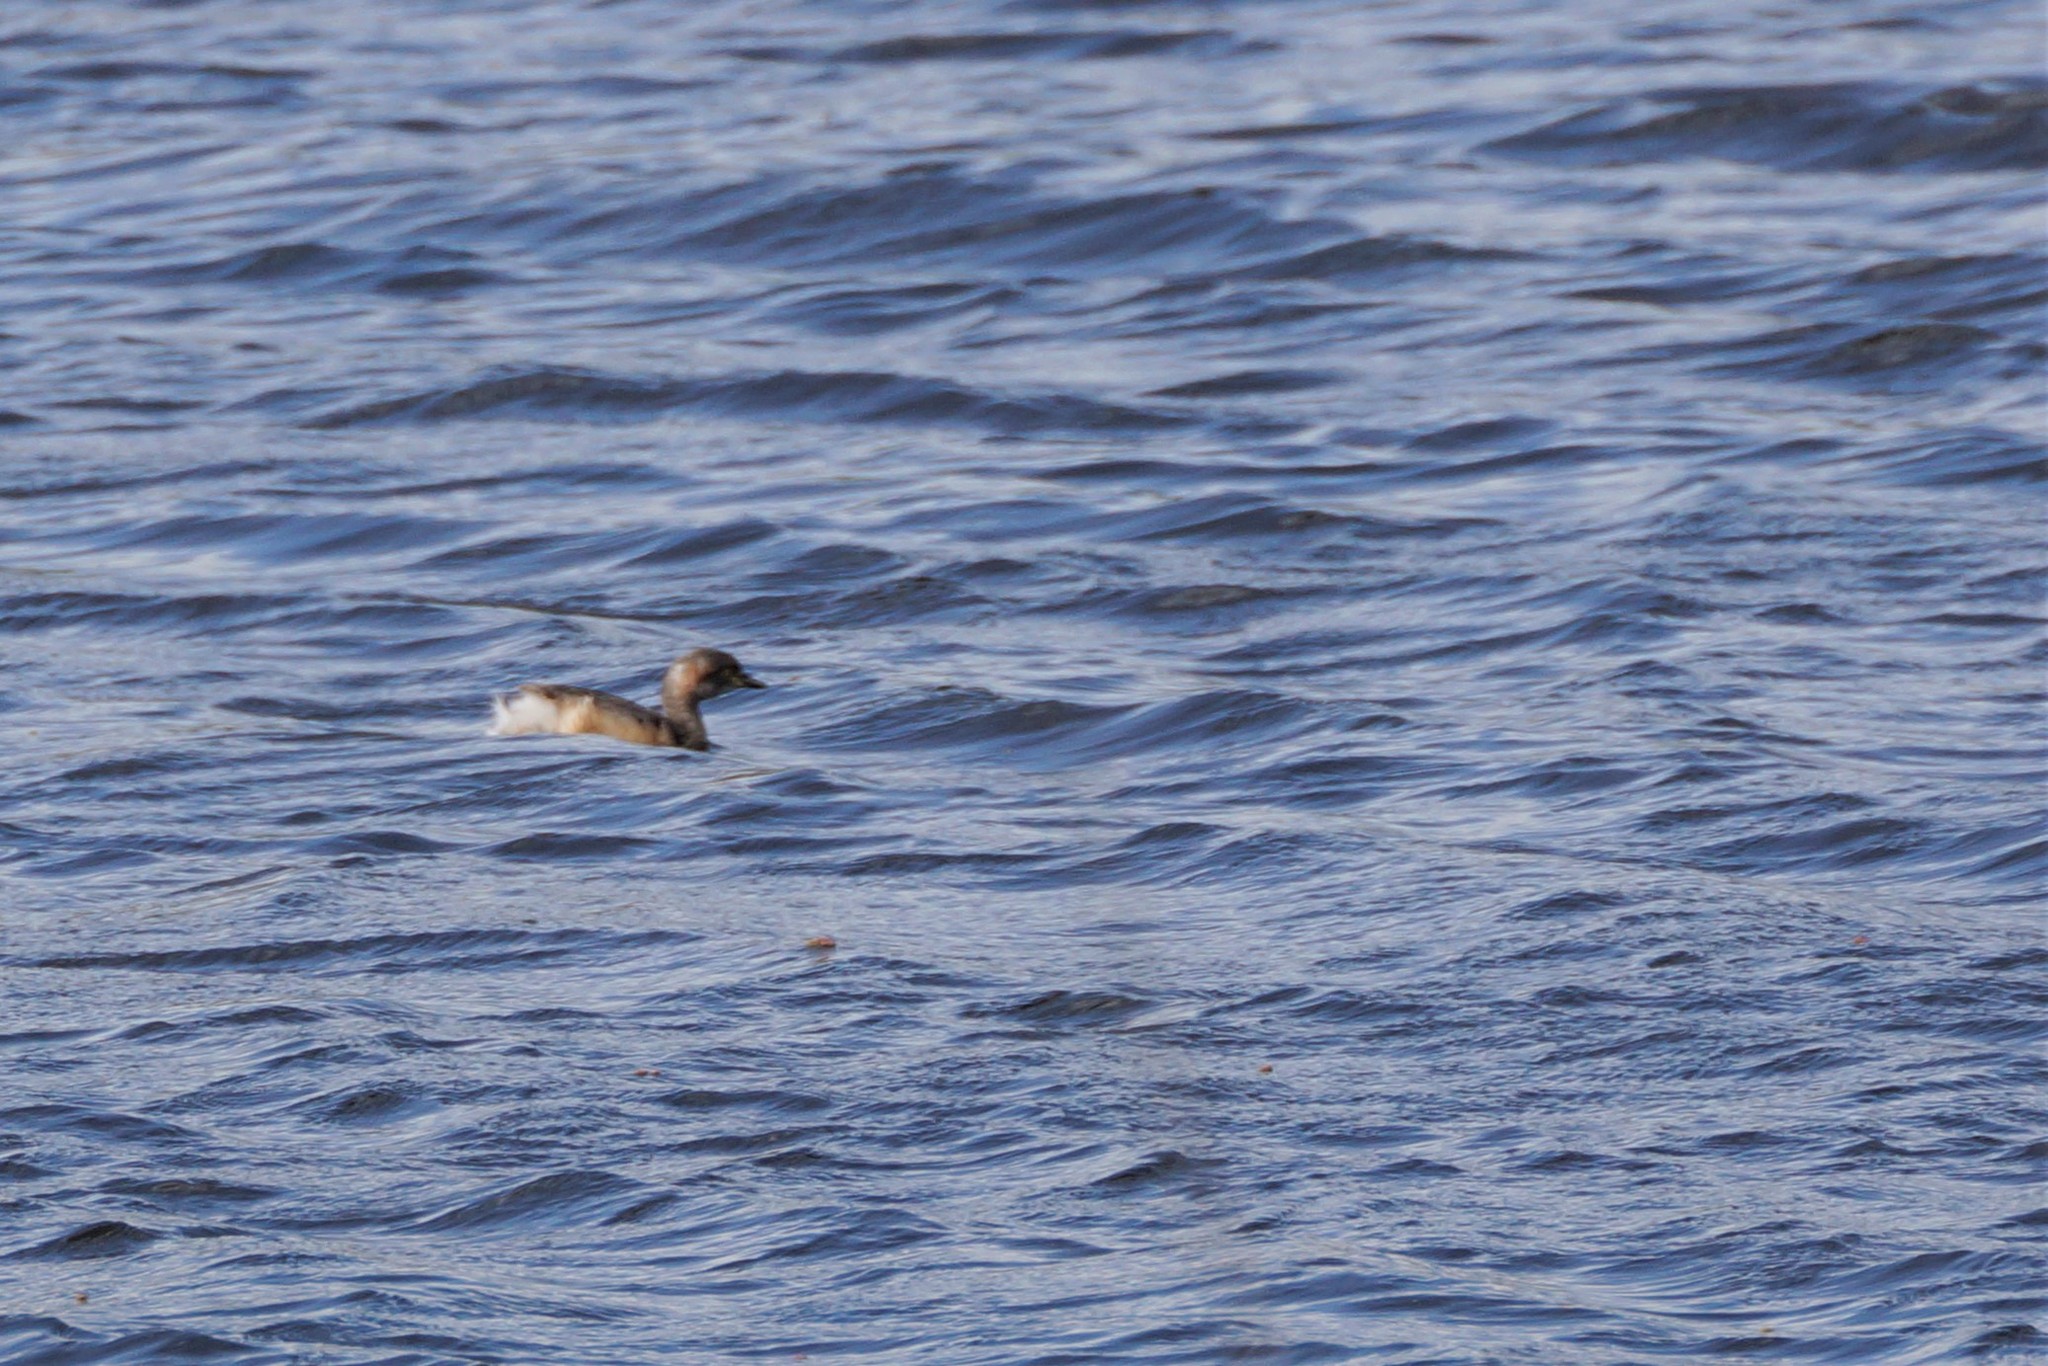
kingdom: Animalia
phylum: Chordata
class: Aves
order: Podicipediformes
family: Podicipedidae
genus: Tachybaptus
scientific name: Tachybaptus novaehollandiae
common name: Australasian grebe
